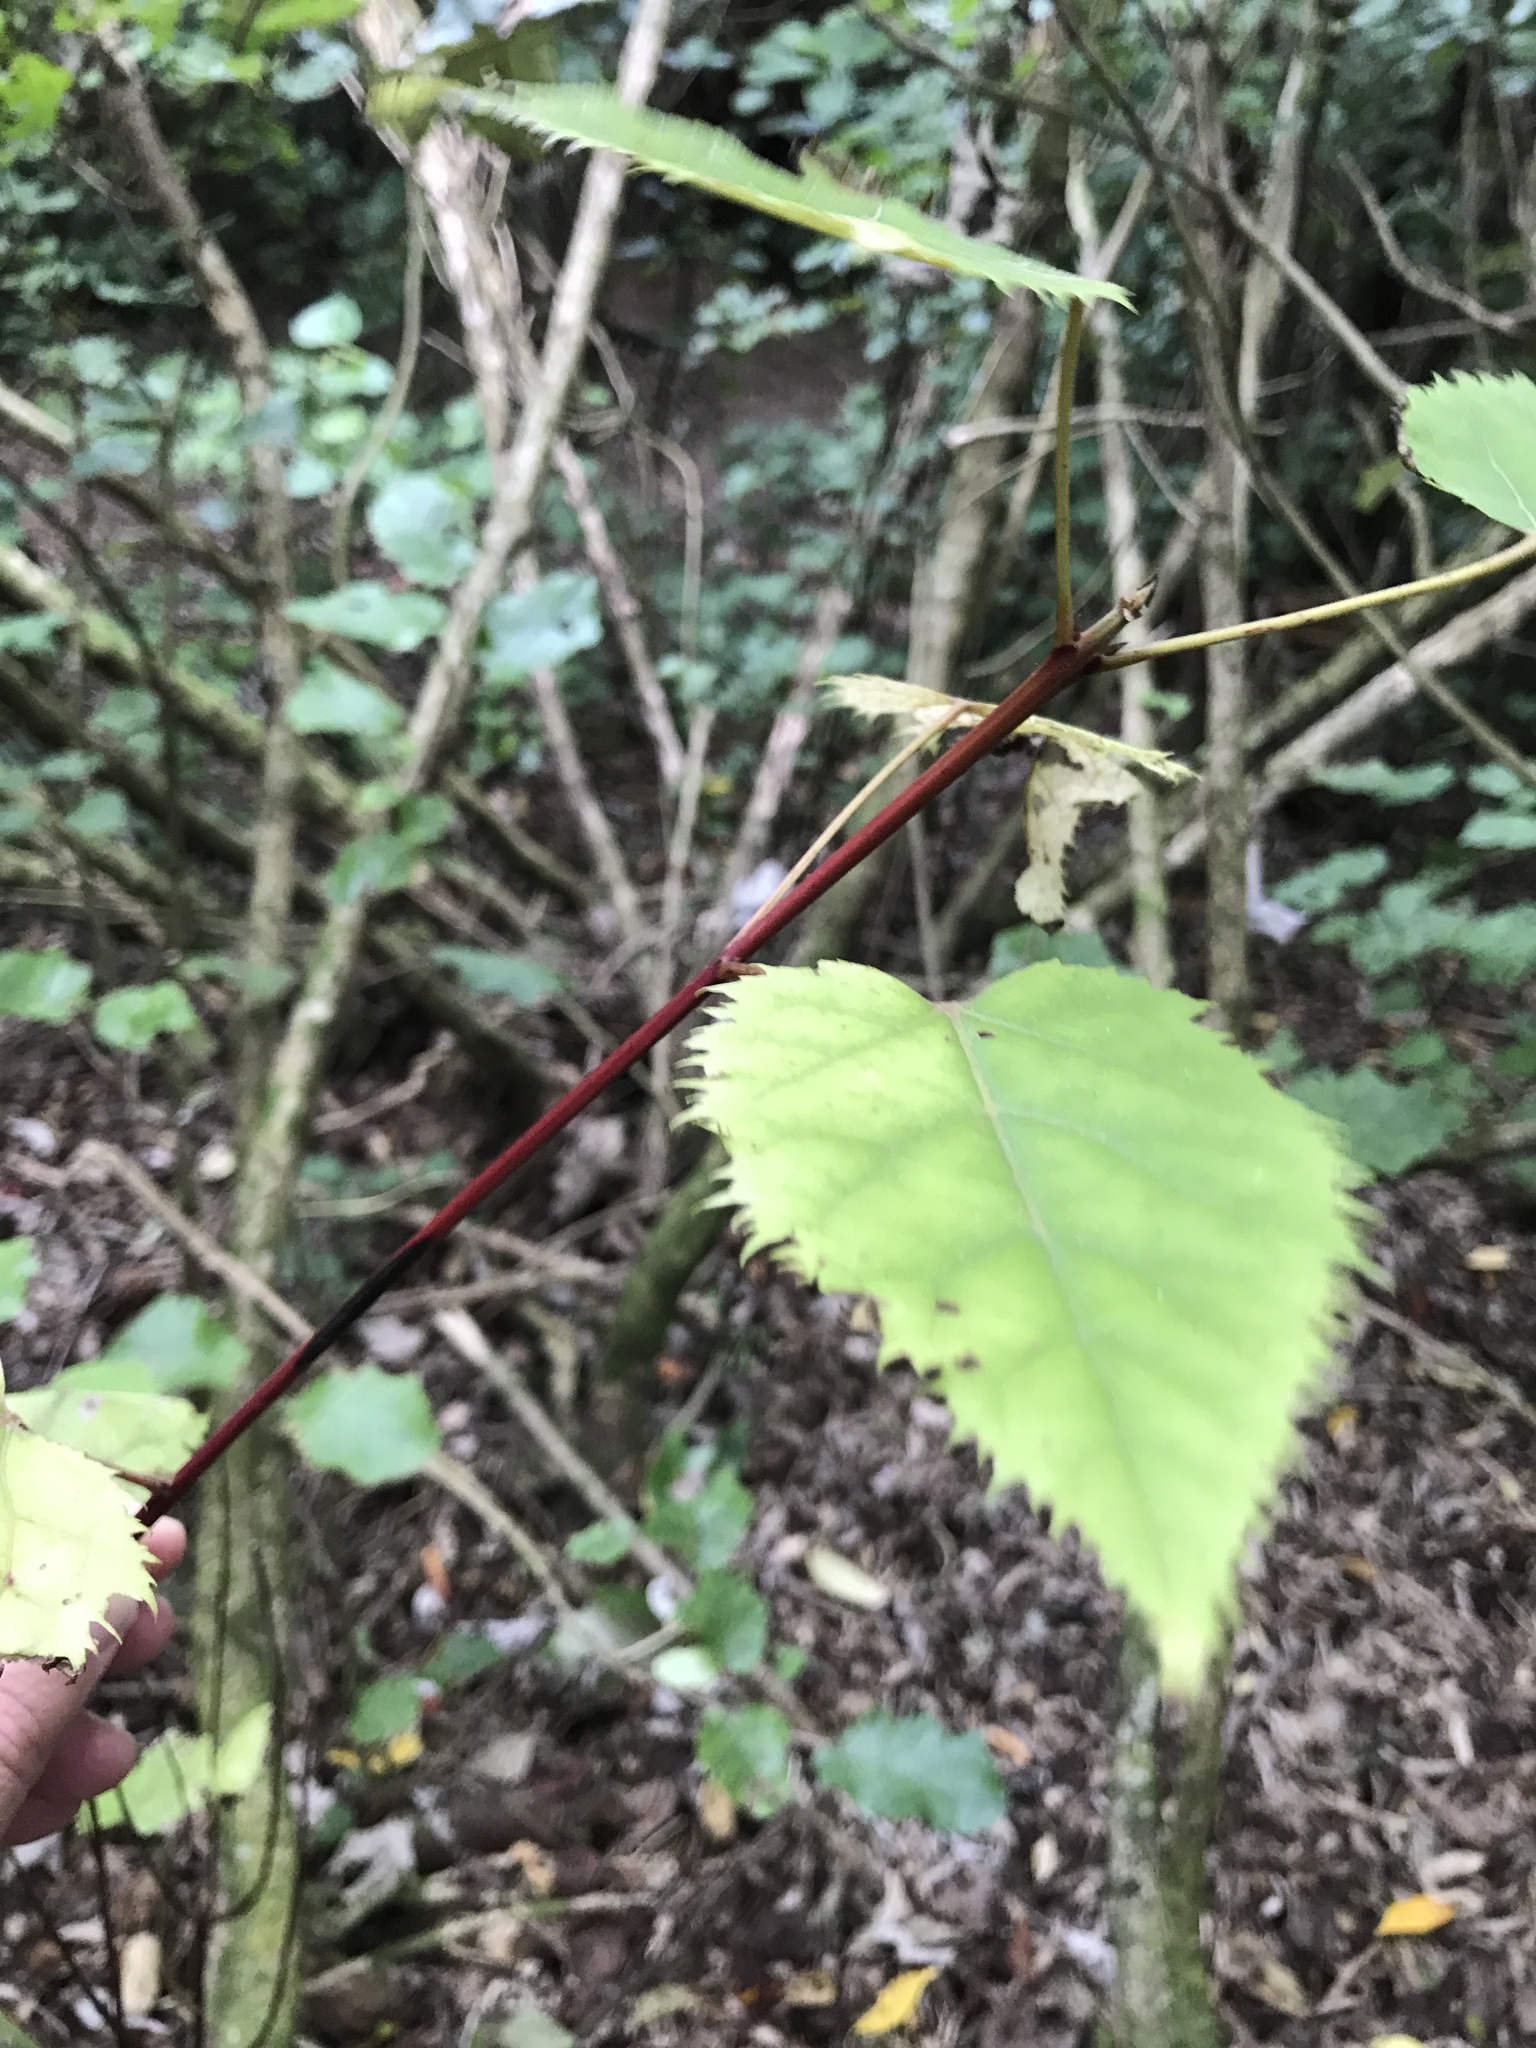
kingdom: Plantae
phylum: Tracheophyta
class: Magnoliopsida
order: Oxalidales
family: Elaeocarpaceae
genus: Aristotelia
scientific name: Aristotelia serrata
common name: New zealand wineberry
